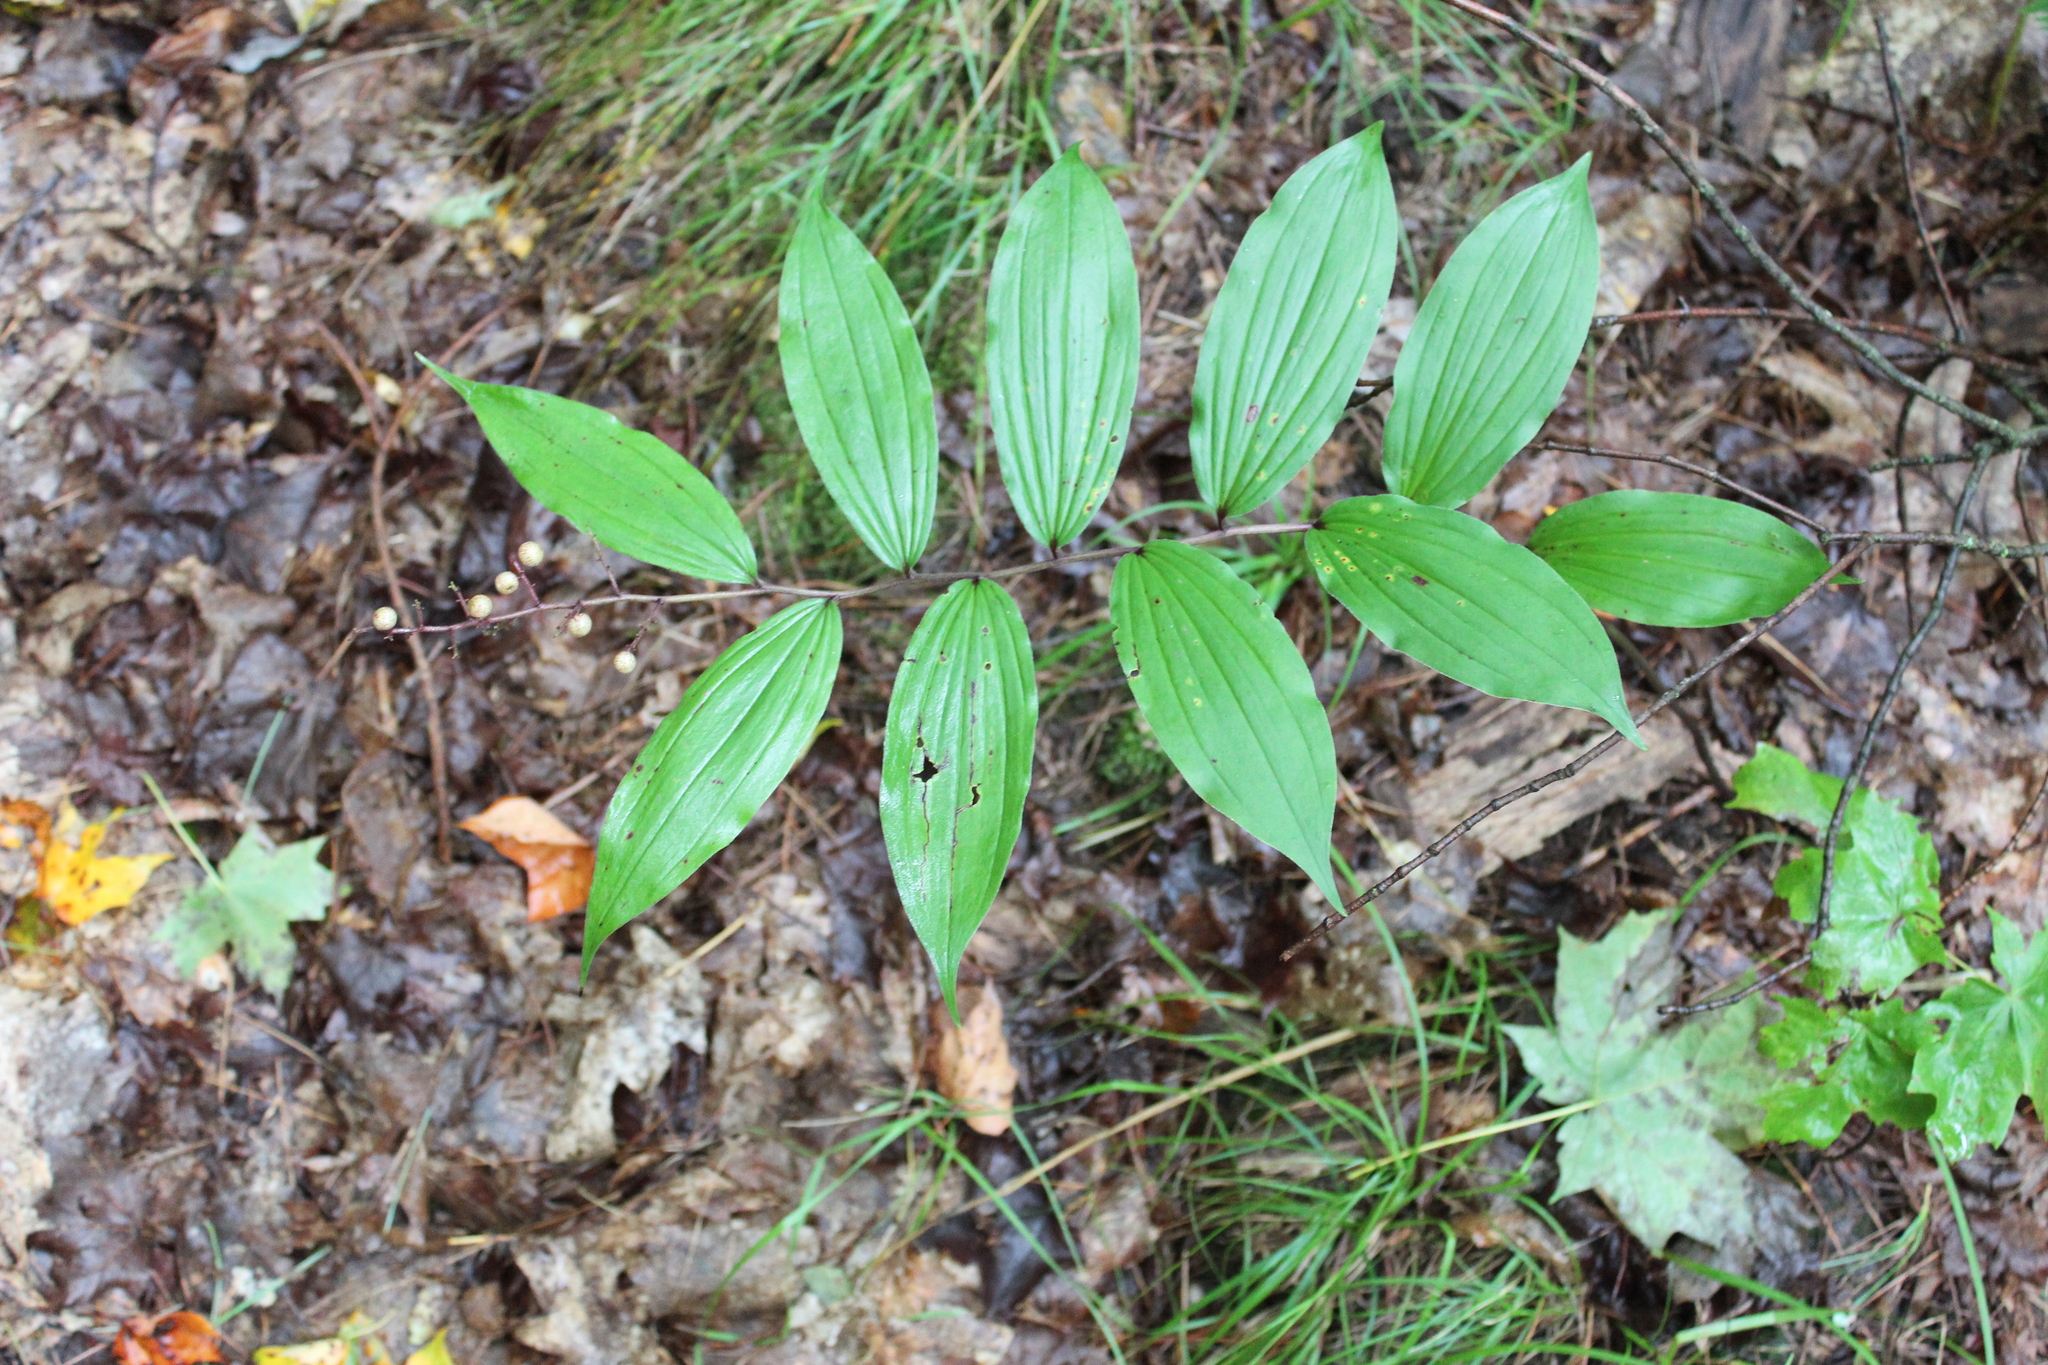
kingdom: Plantae
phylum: Tracheophyta
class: Liliopsida
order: Asparagales
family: Asparagaceae
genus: Maianthemum
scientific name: Maianthemum racemosum
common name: False spikenard
